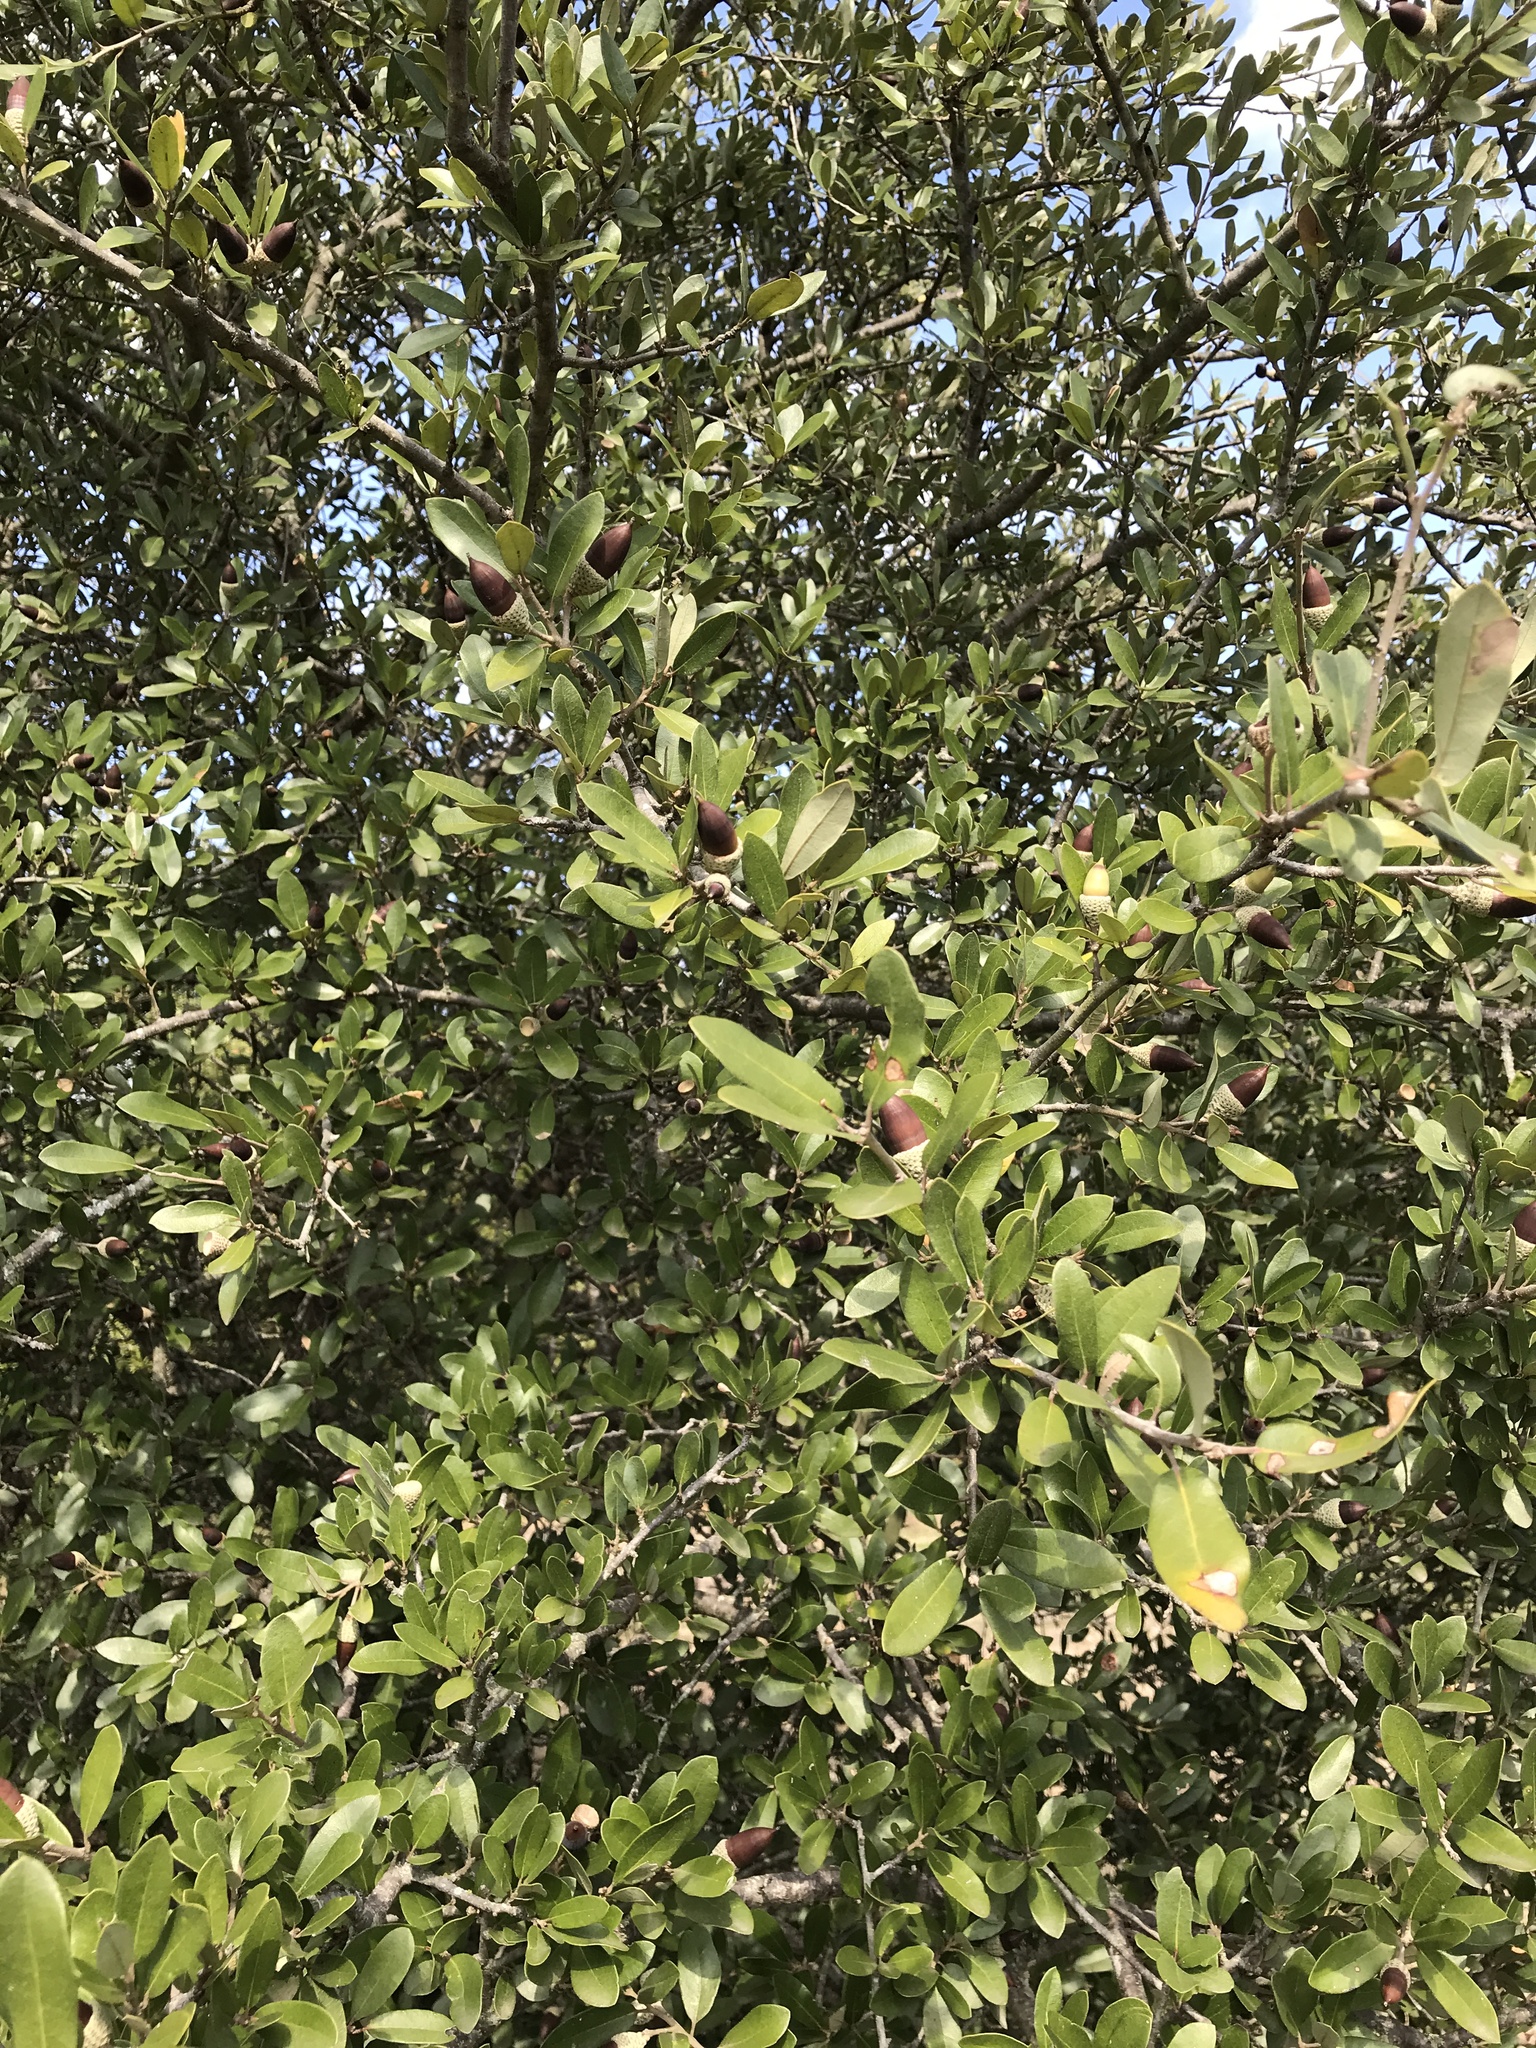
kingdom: Plantae
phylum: Tracheophyta
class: Magnoliopsida
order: Fagales
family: Fagaceae
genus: Quercus
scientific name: Quercus fusiformis
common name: Texas live oak
